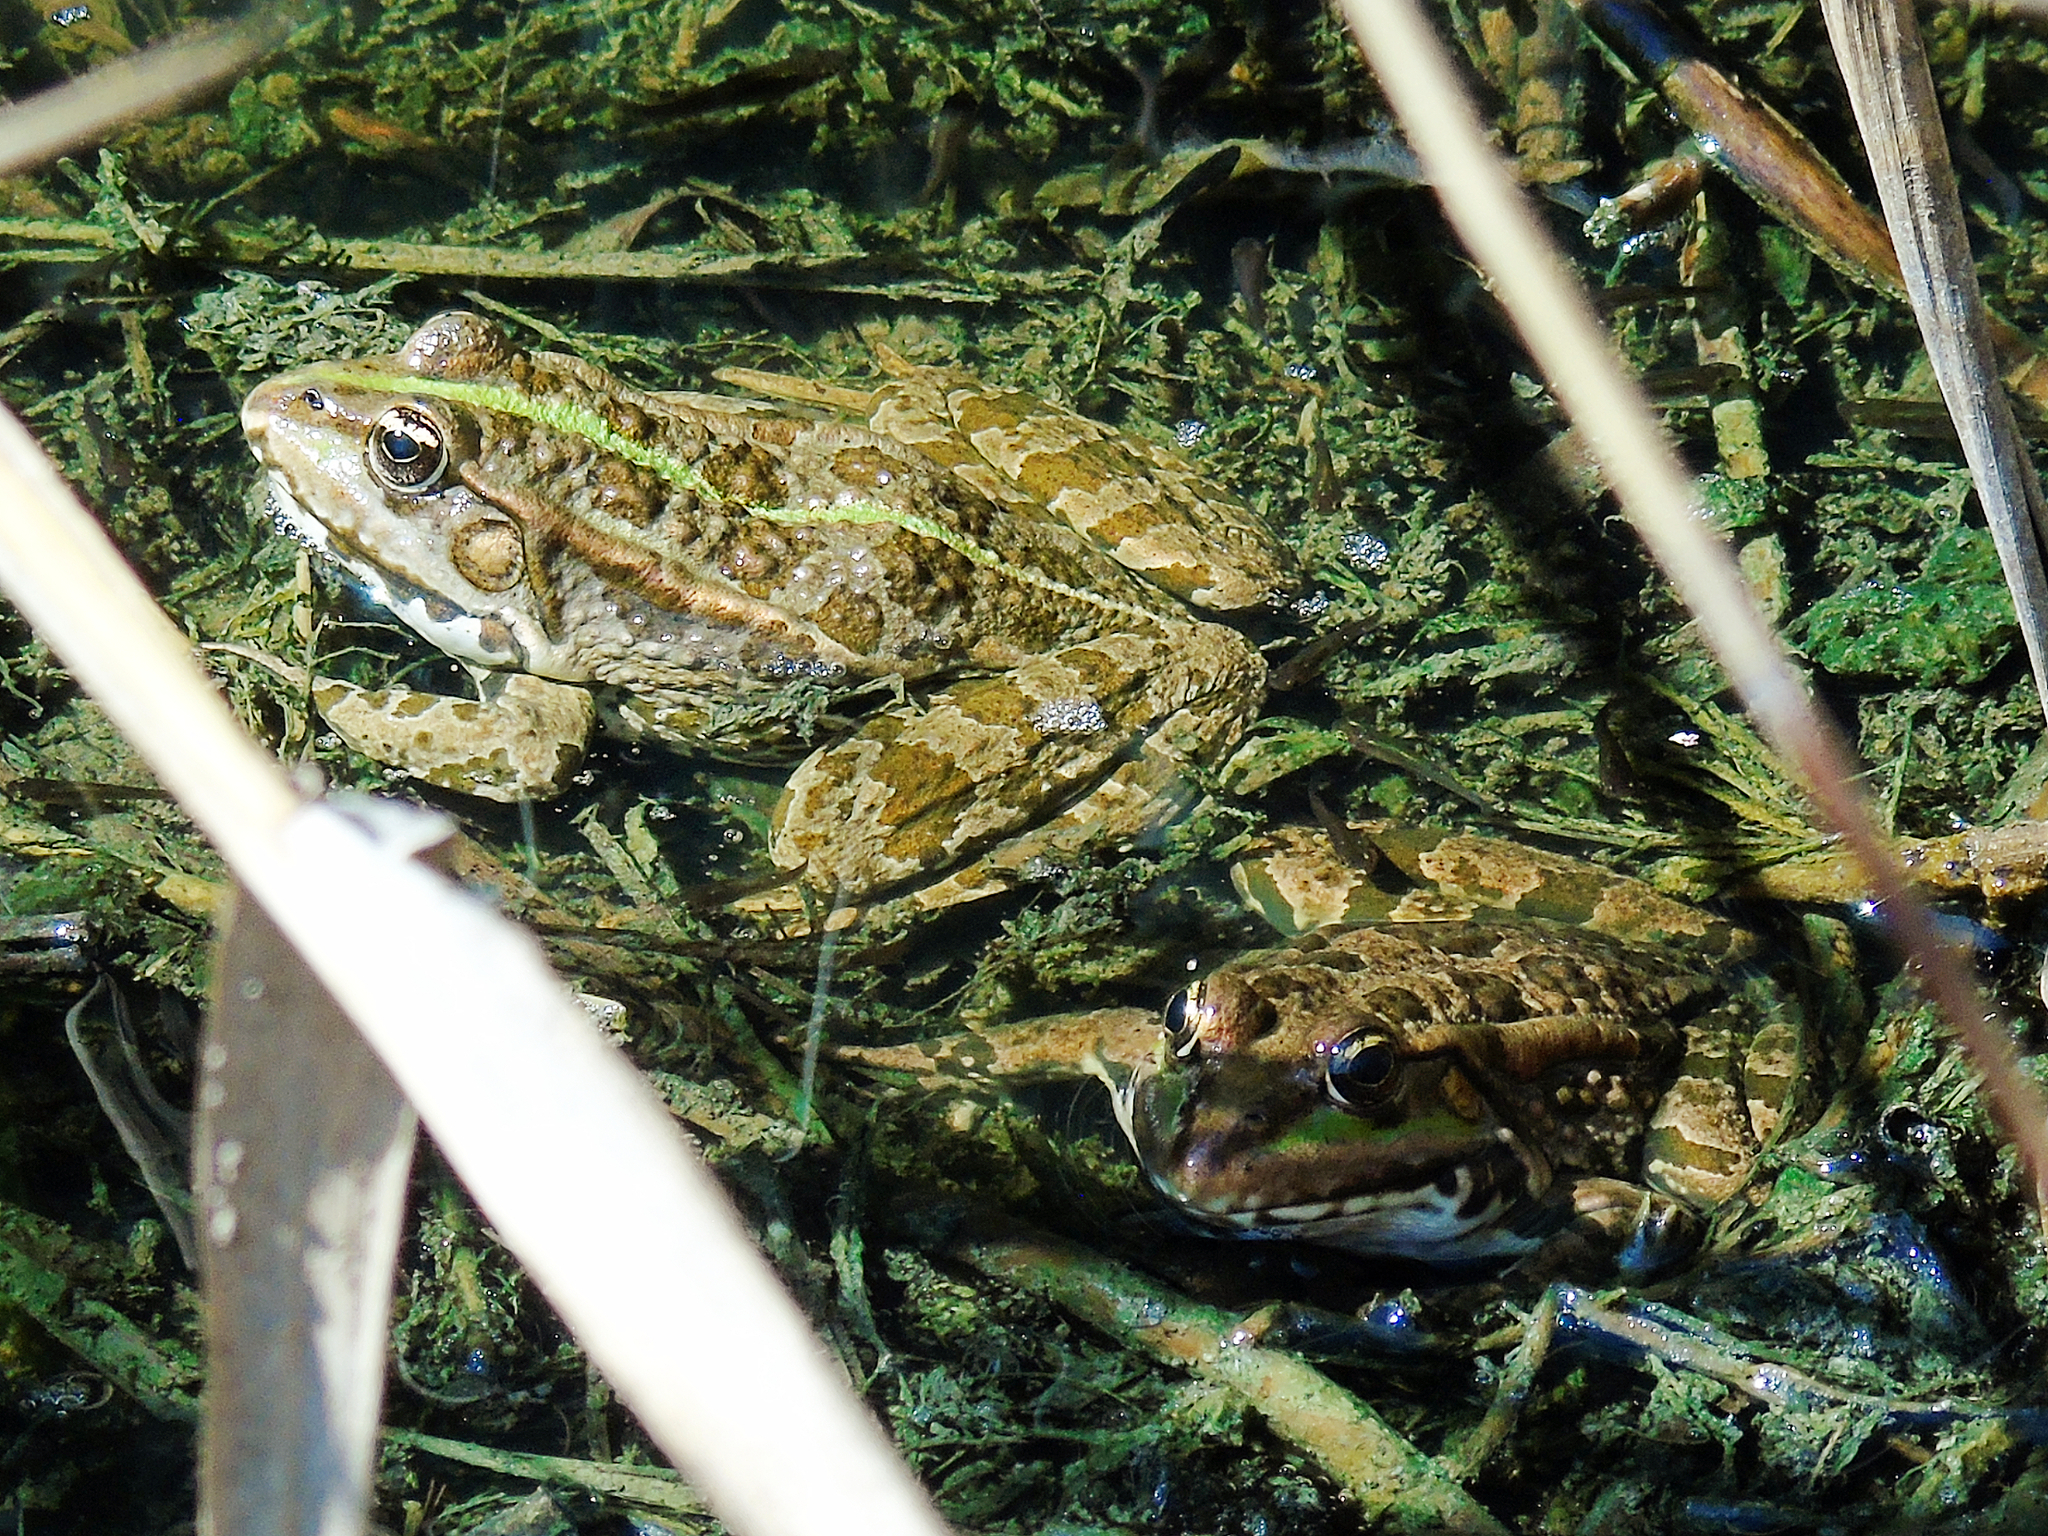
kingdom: Animalia
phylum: Chordata
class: Amphibia
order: Anura
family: Ranidae
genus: Pelophylax
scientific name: Pelophylax ridibundus
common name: Marsh frog
